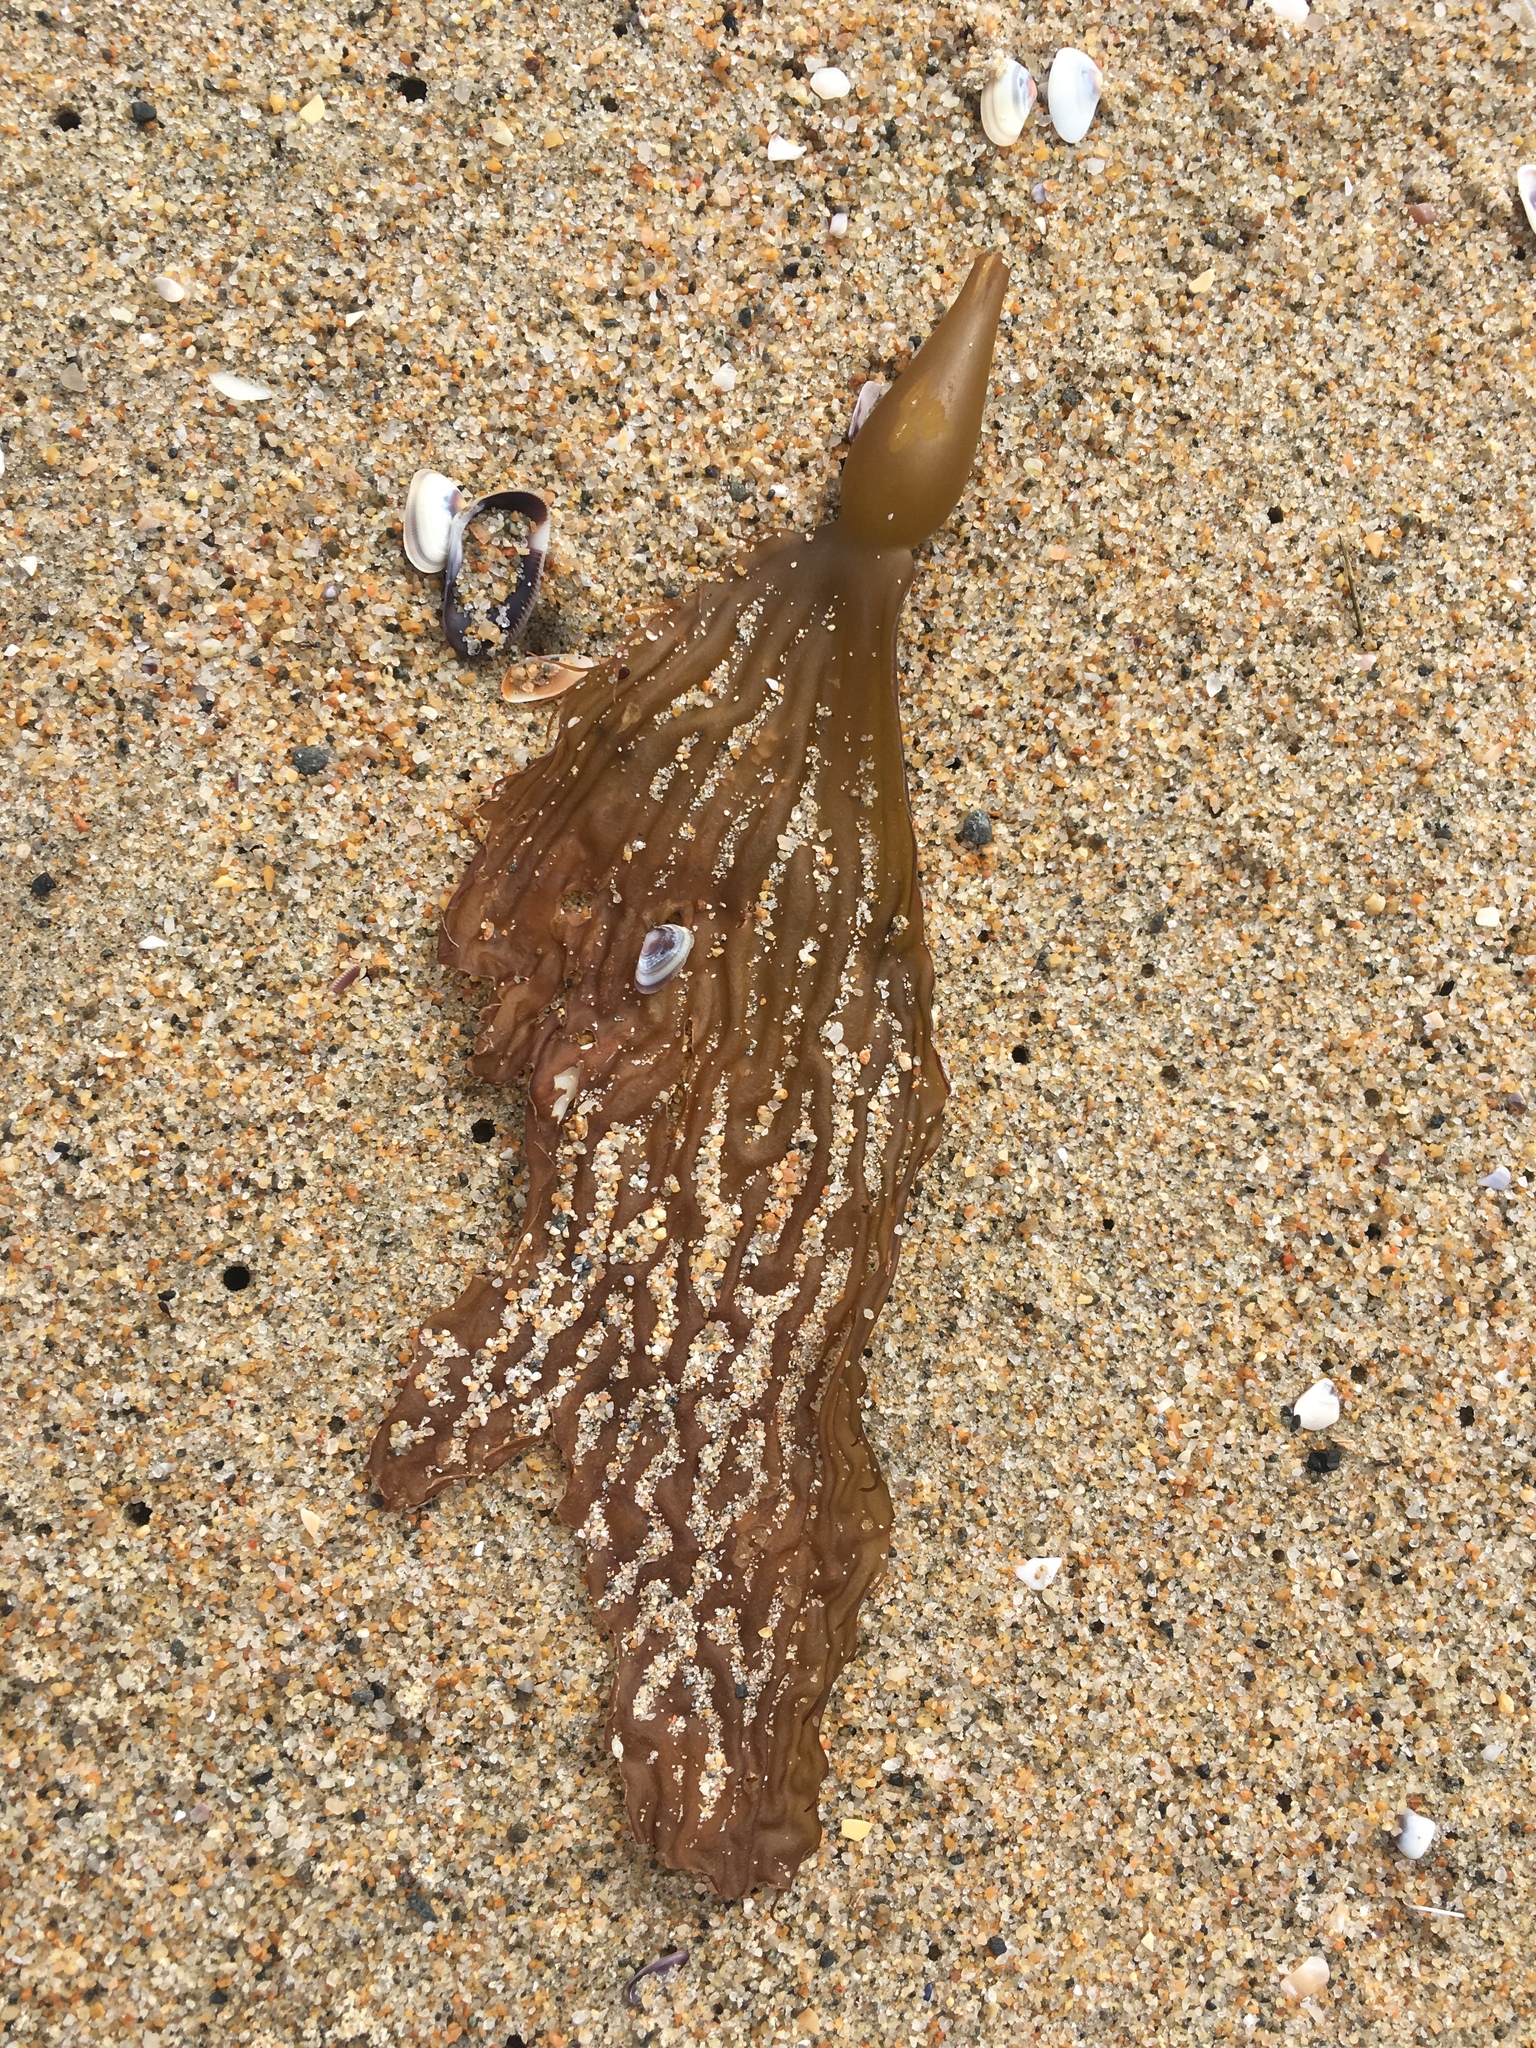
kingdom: Chromista
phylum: Ochrophyta
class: Phaeophyceae
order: Laminariales
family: Laminariaceae
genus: Macrocystis
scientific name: Macrocystis pyrifera
